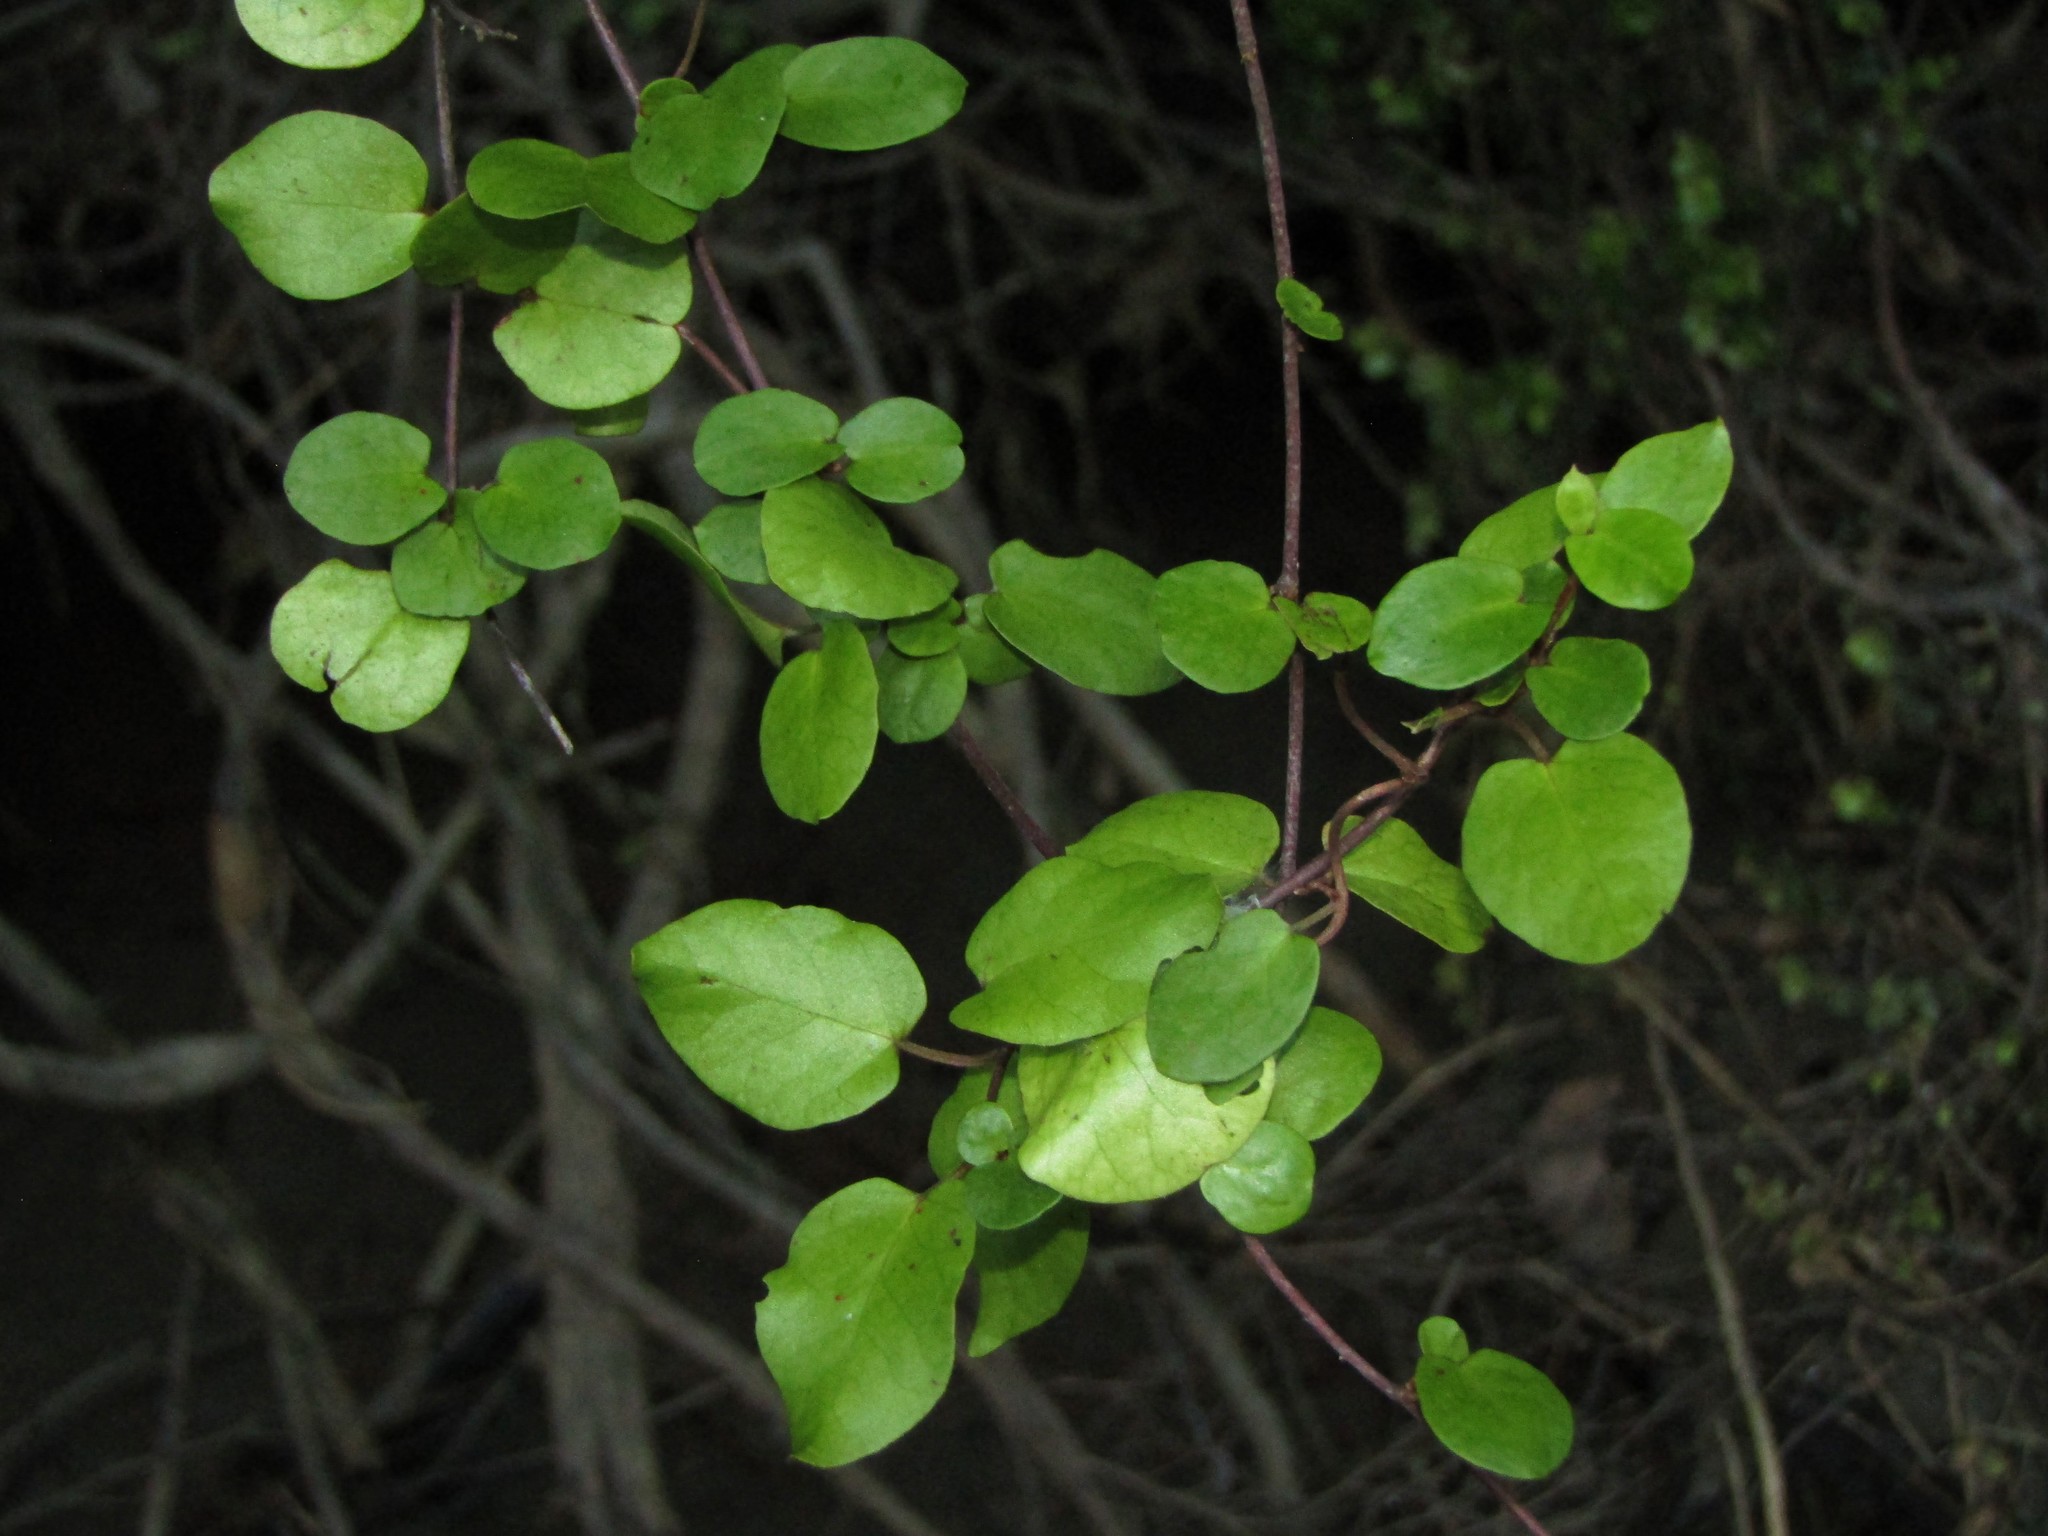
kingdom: Plantae
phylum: Tracheophyta
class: Magnoliopsida
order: Caryophyllales
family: Polygonaceae
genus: Muehlenbeckia
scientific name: Muehlenbeckia australis
